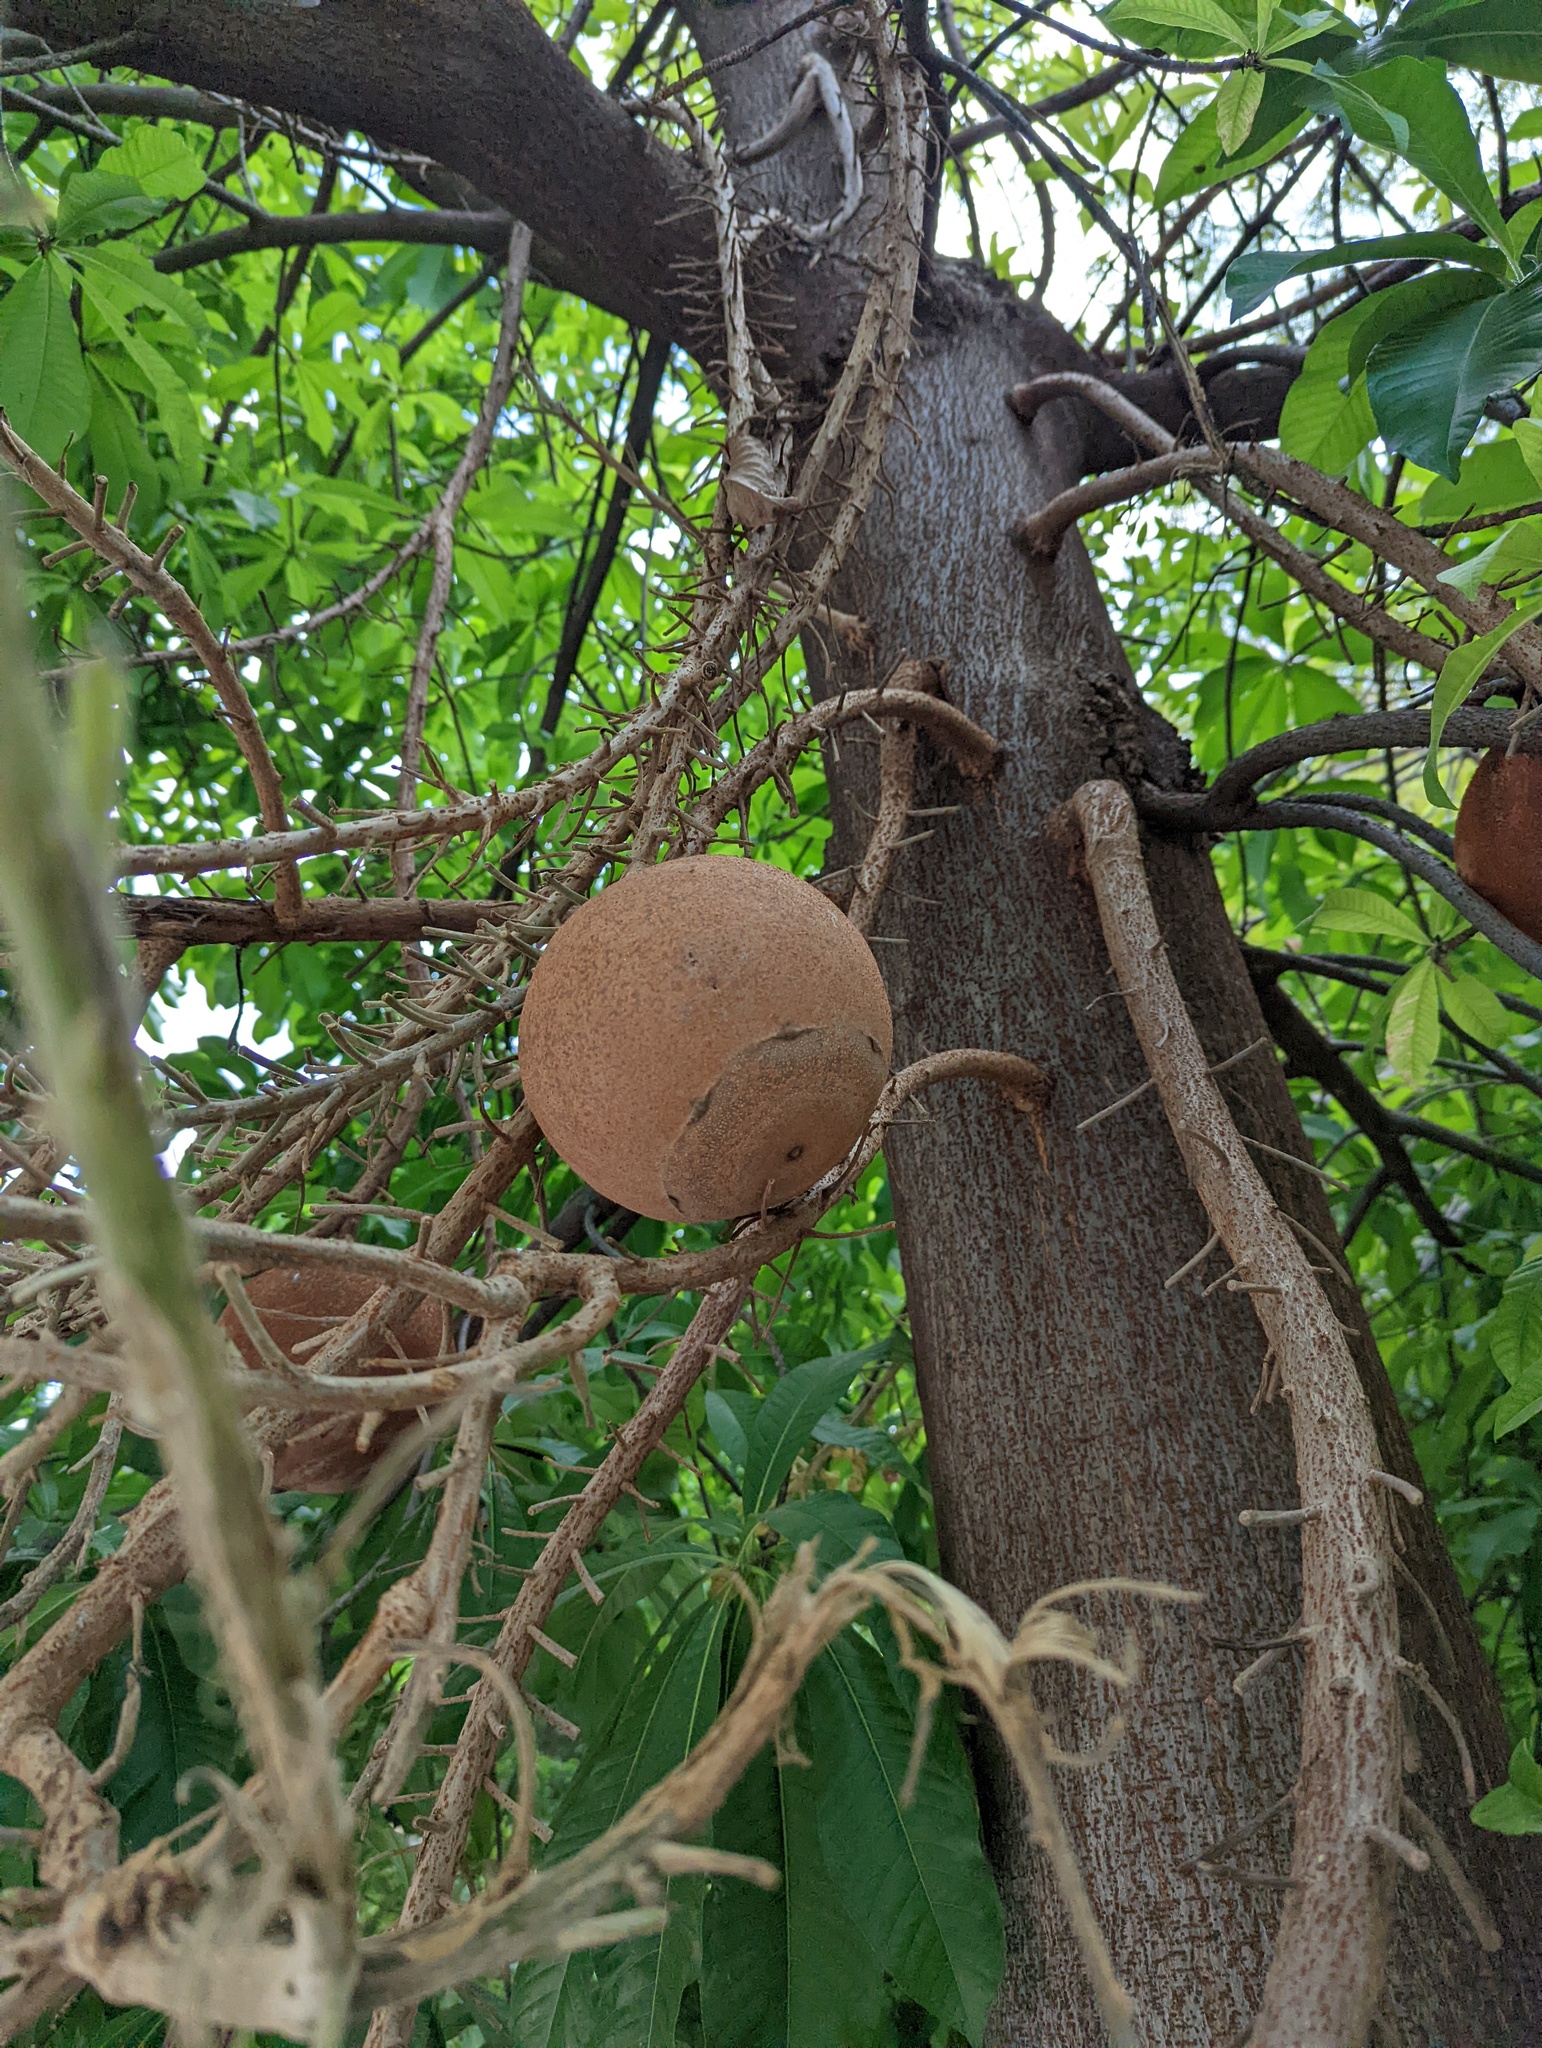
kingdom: Plantae
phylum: Tracheophyta
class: Magnoliopsida
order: Ericales
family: Lecythidaceae
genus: Couroupita
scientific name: Couroupita guianensis
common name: Cannonball tree
